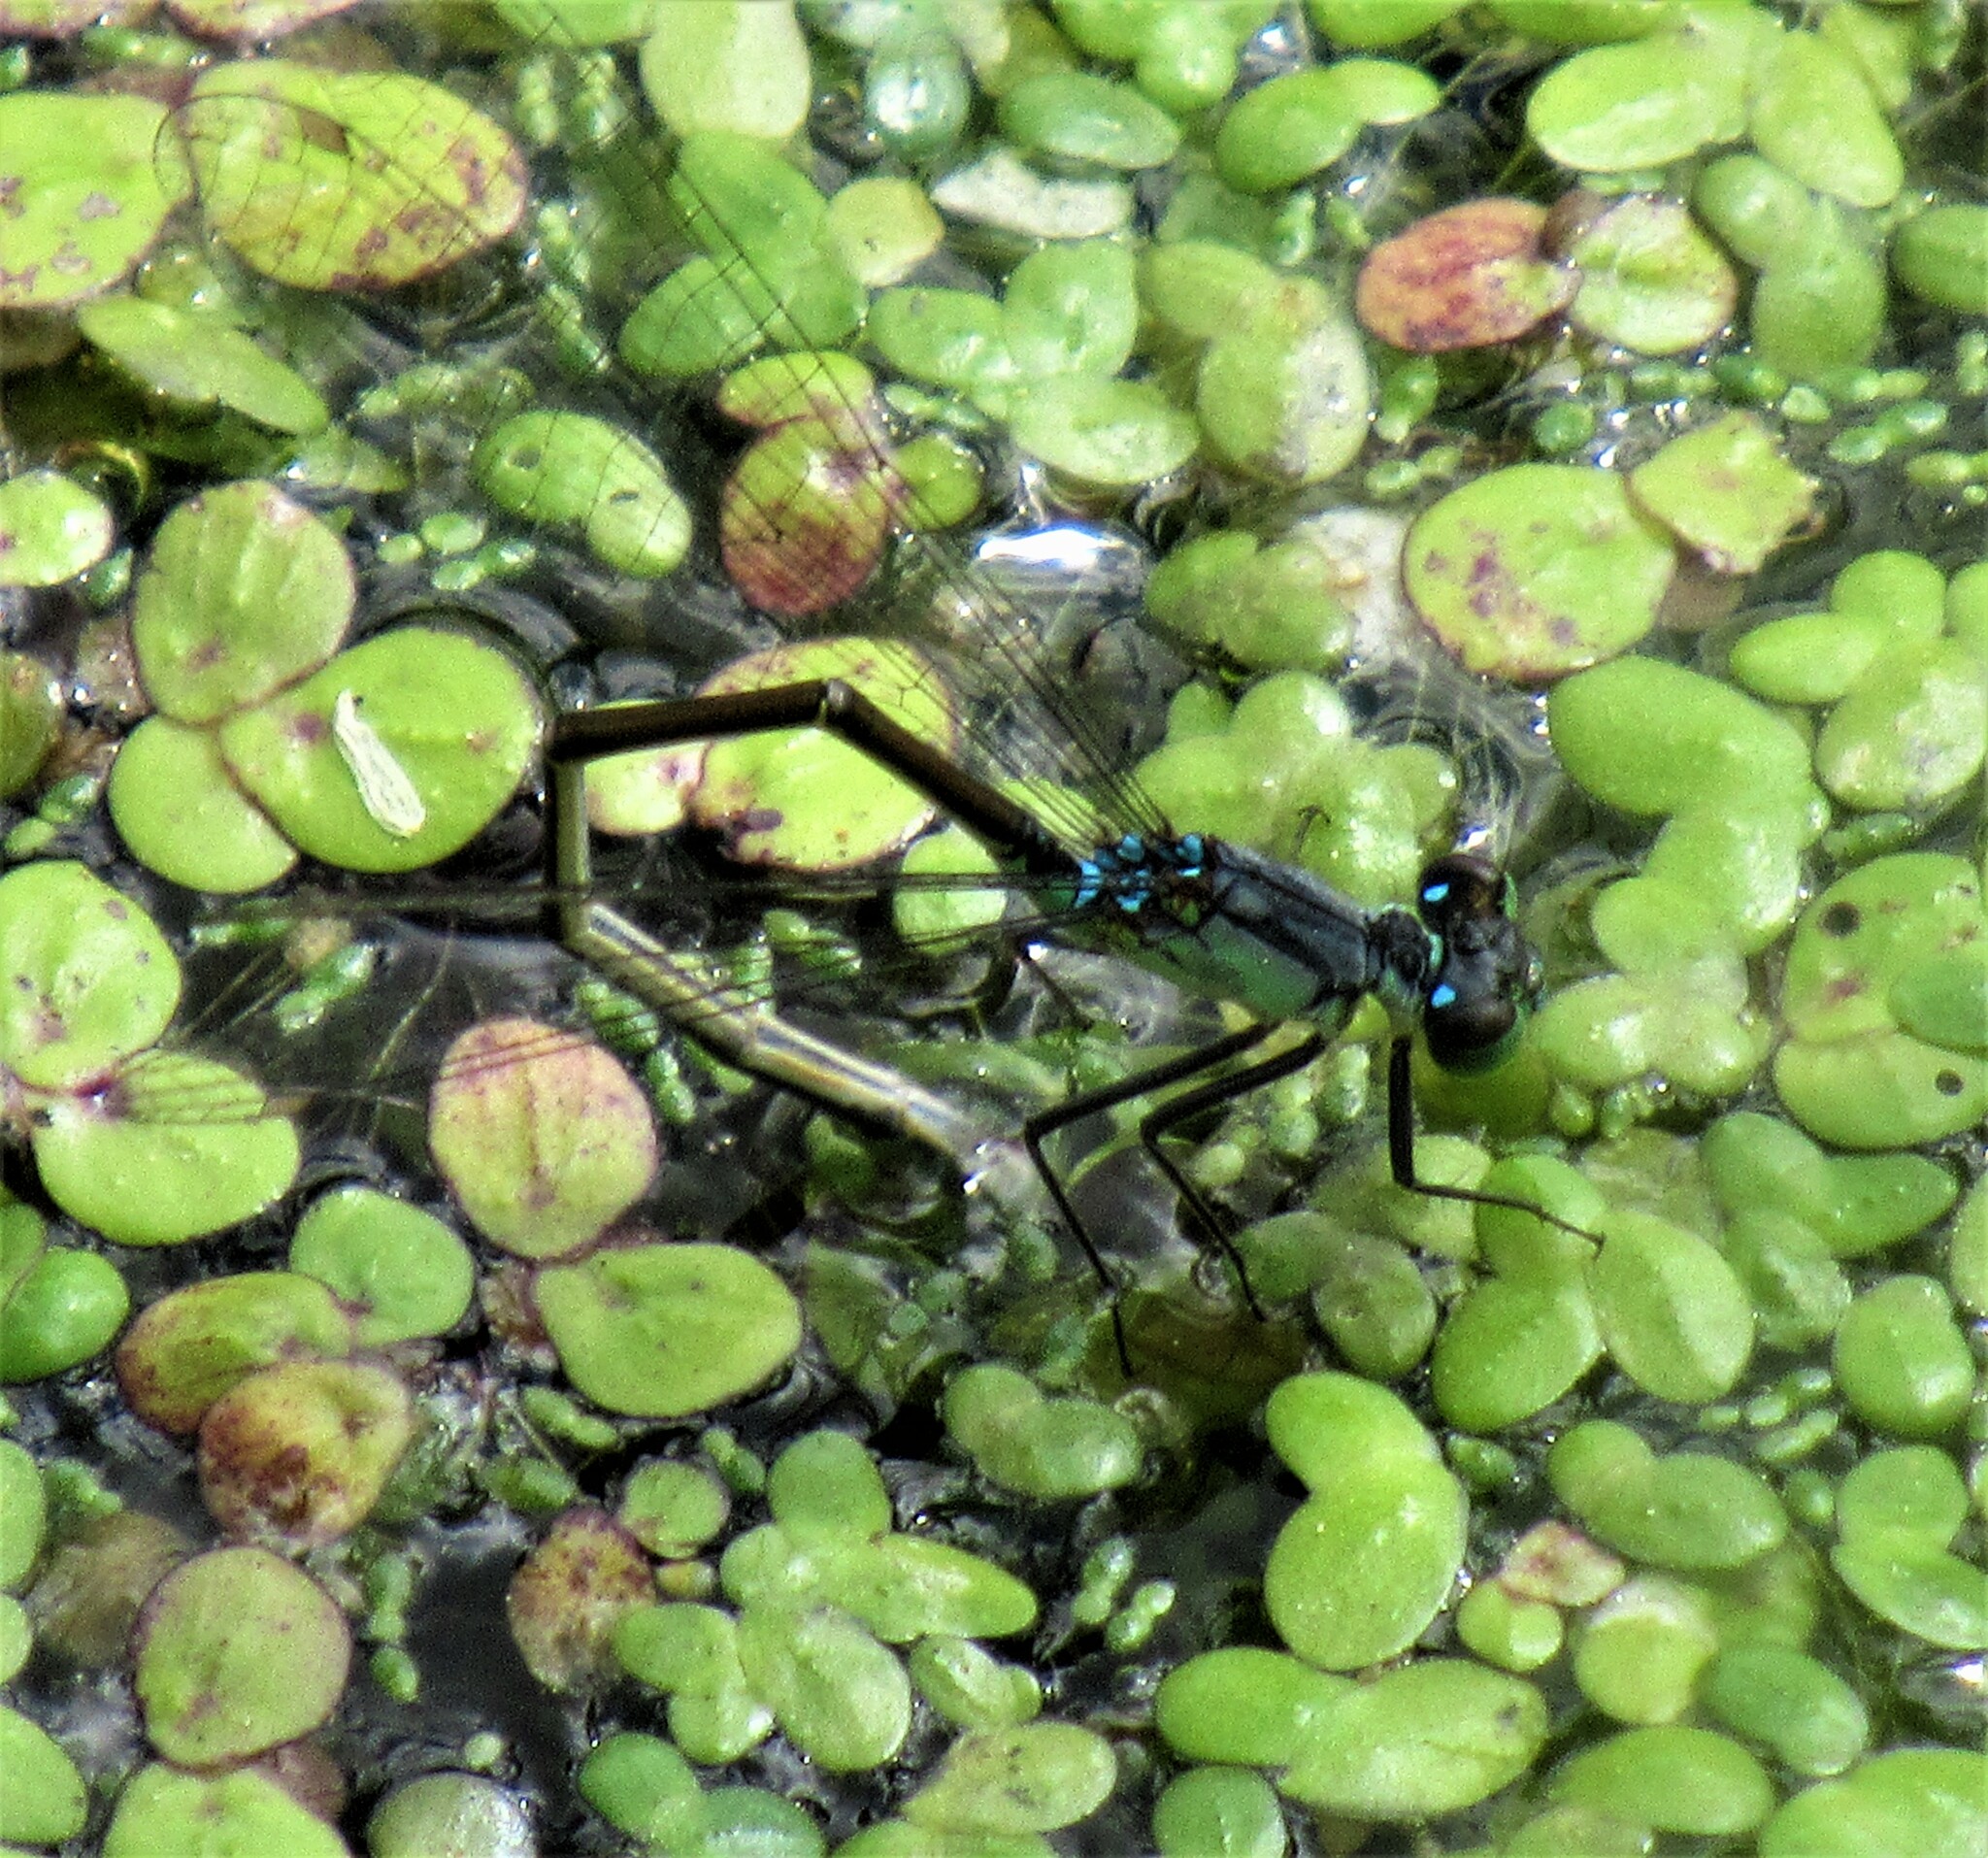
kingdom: Animalia
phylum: Arthropoda
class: Insecta
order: Odonata
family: Coenagrionidae
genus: Ischnura
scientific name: Ischnura cervula
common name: Pacific forktail
